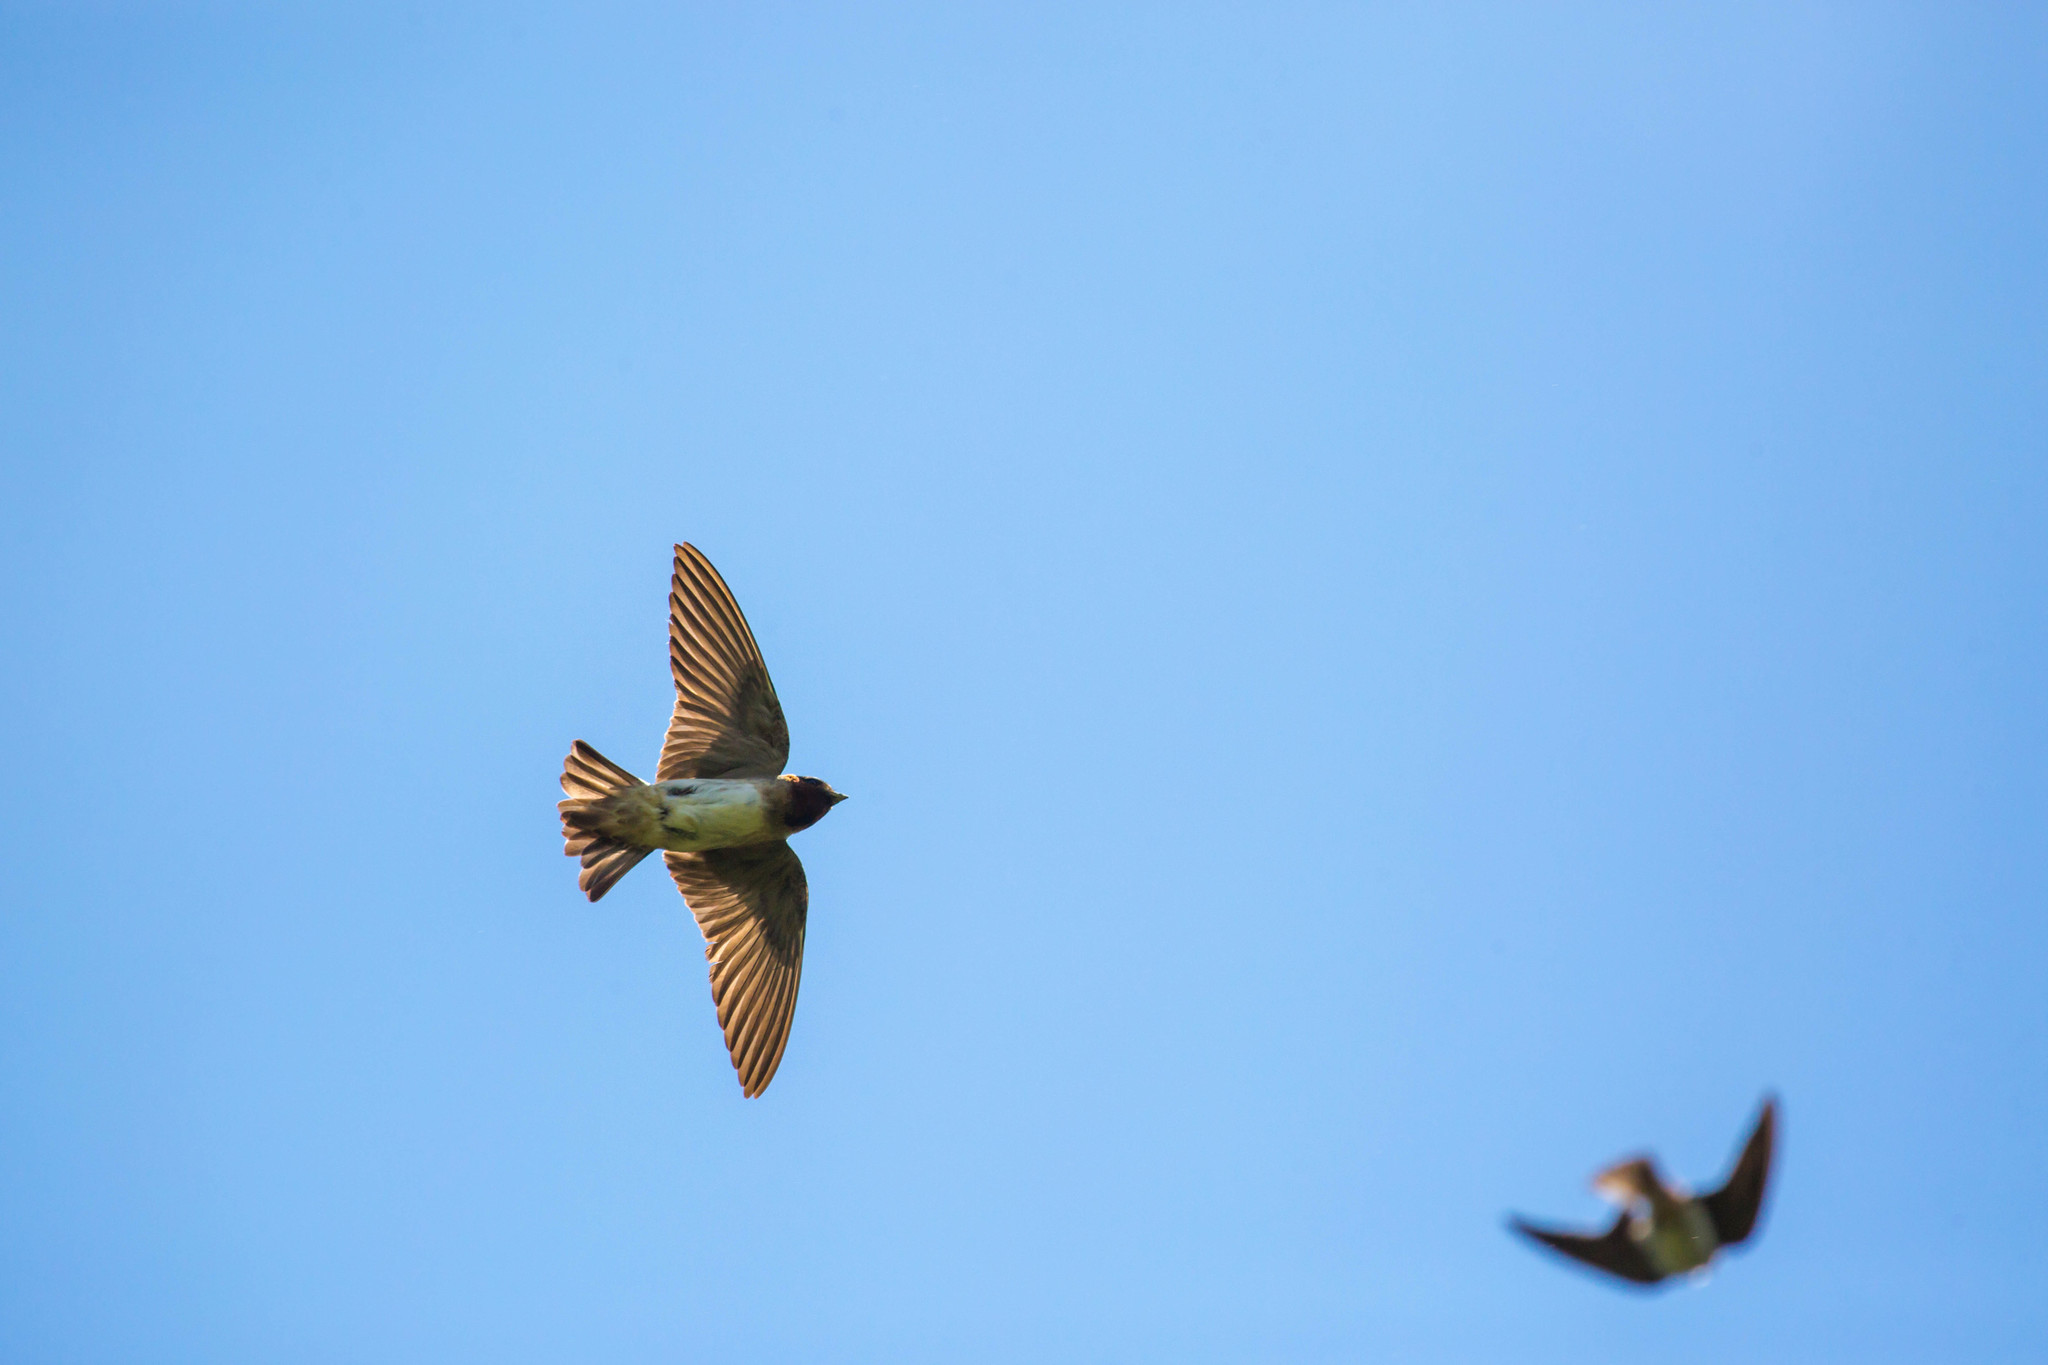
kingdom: Animalia
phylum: Chordata
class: Aves
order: Passeriformes
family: Hirundinidae
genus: Petrochelidon
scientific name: Petrochelidon pyrrhonota
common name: American cliff swallow
